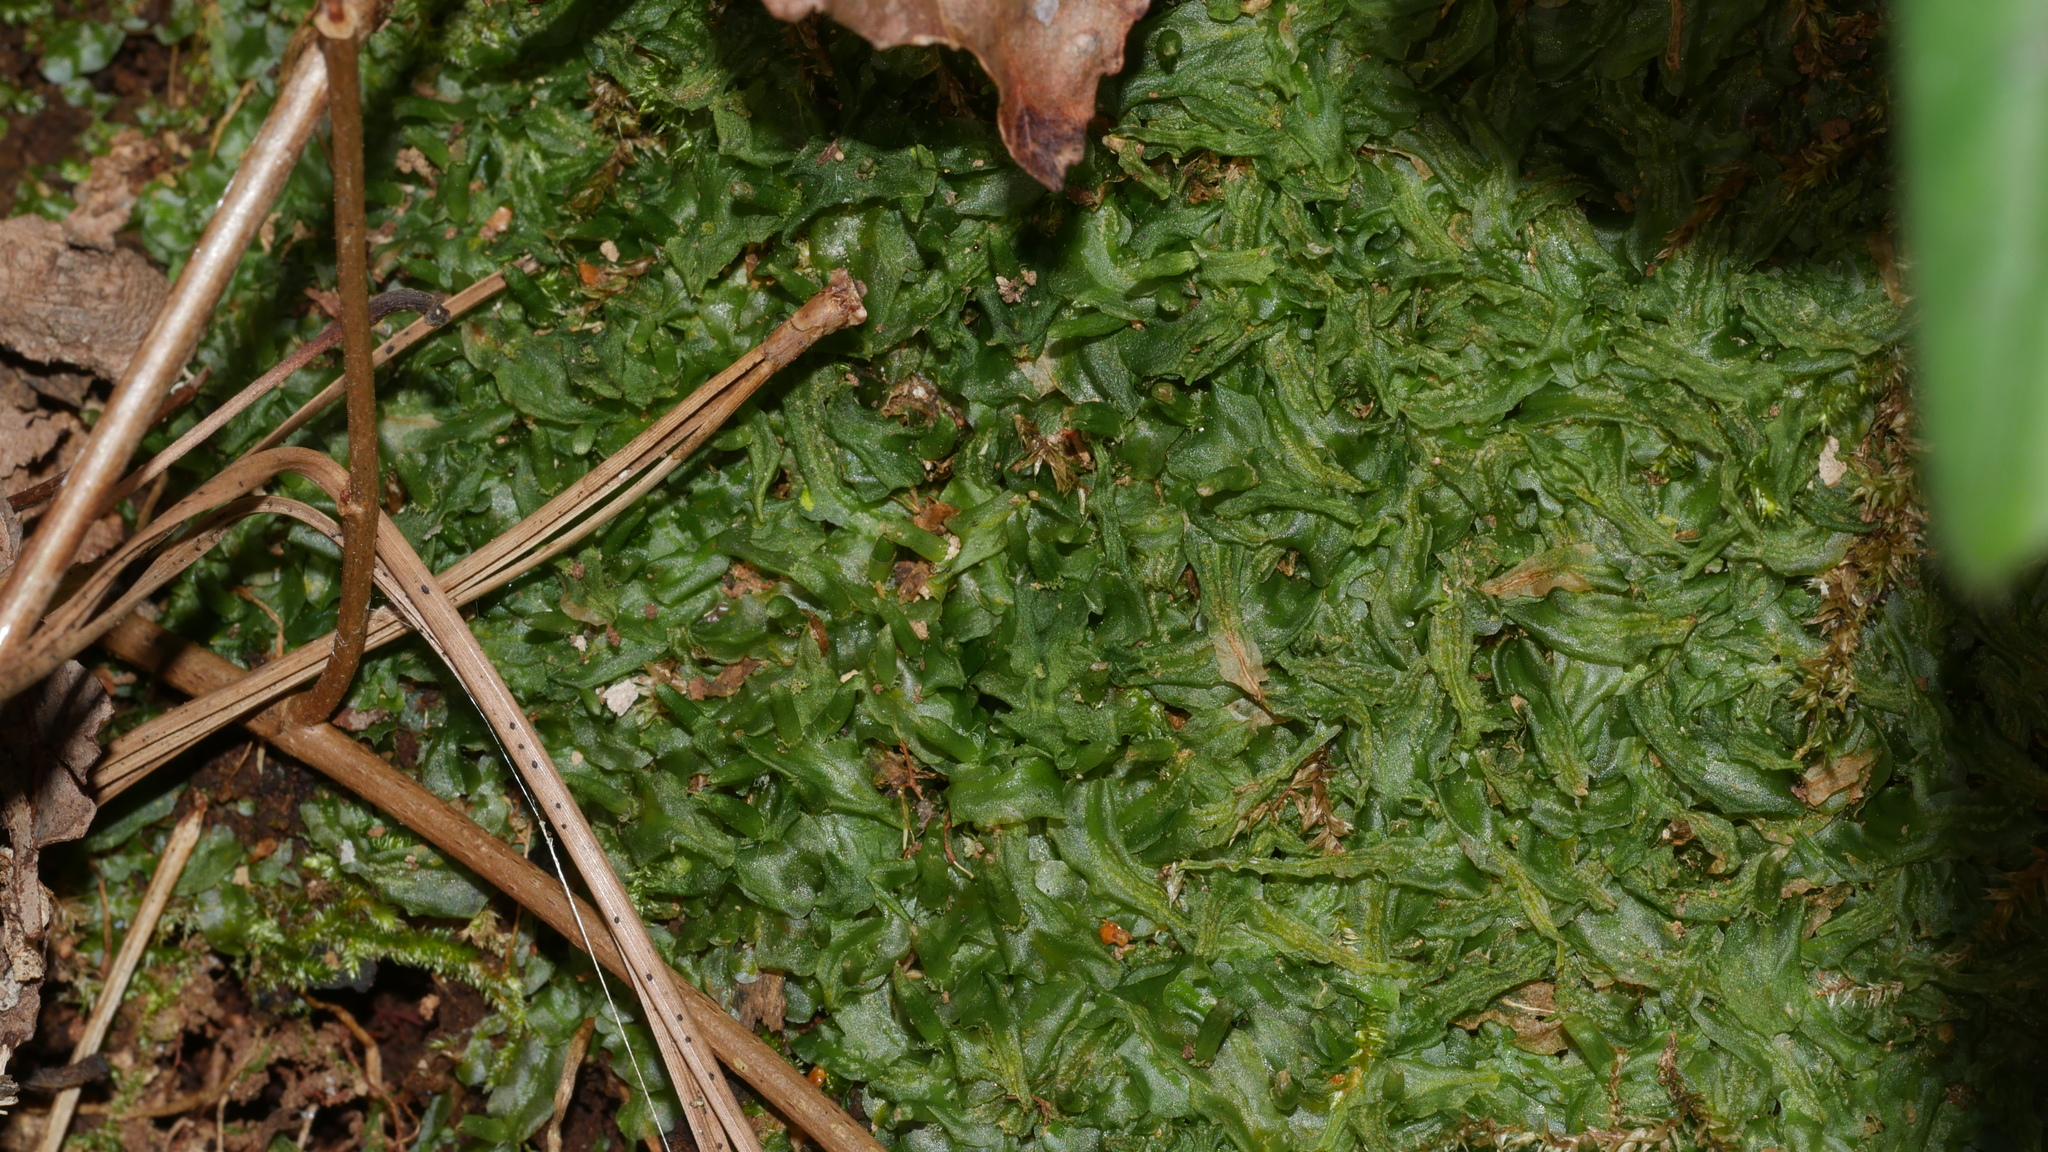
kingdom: Plantae
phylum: Marchantiophyta
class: Jungermanniopsida
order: Pallaviciniales
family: Pallaviciniaceae
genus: Pallavicinia
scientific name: Pallavicinia lyellii
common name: Veilwort
